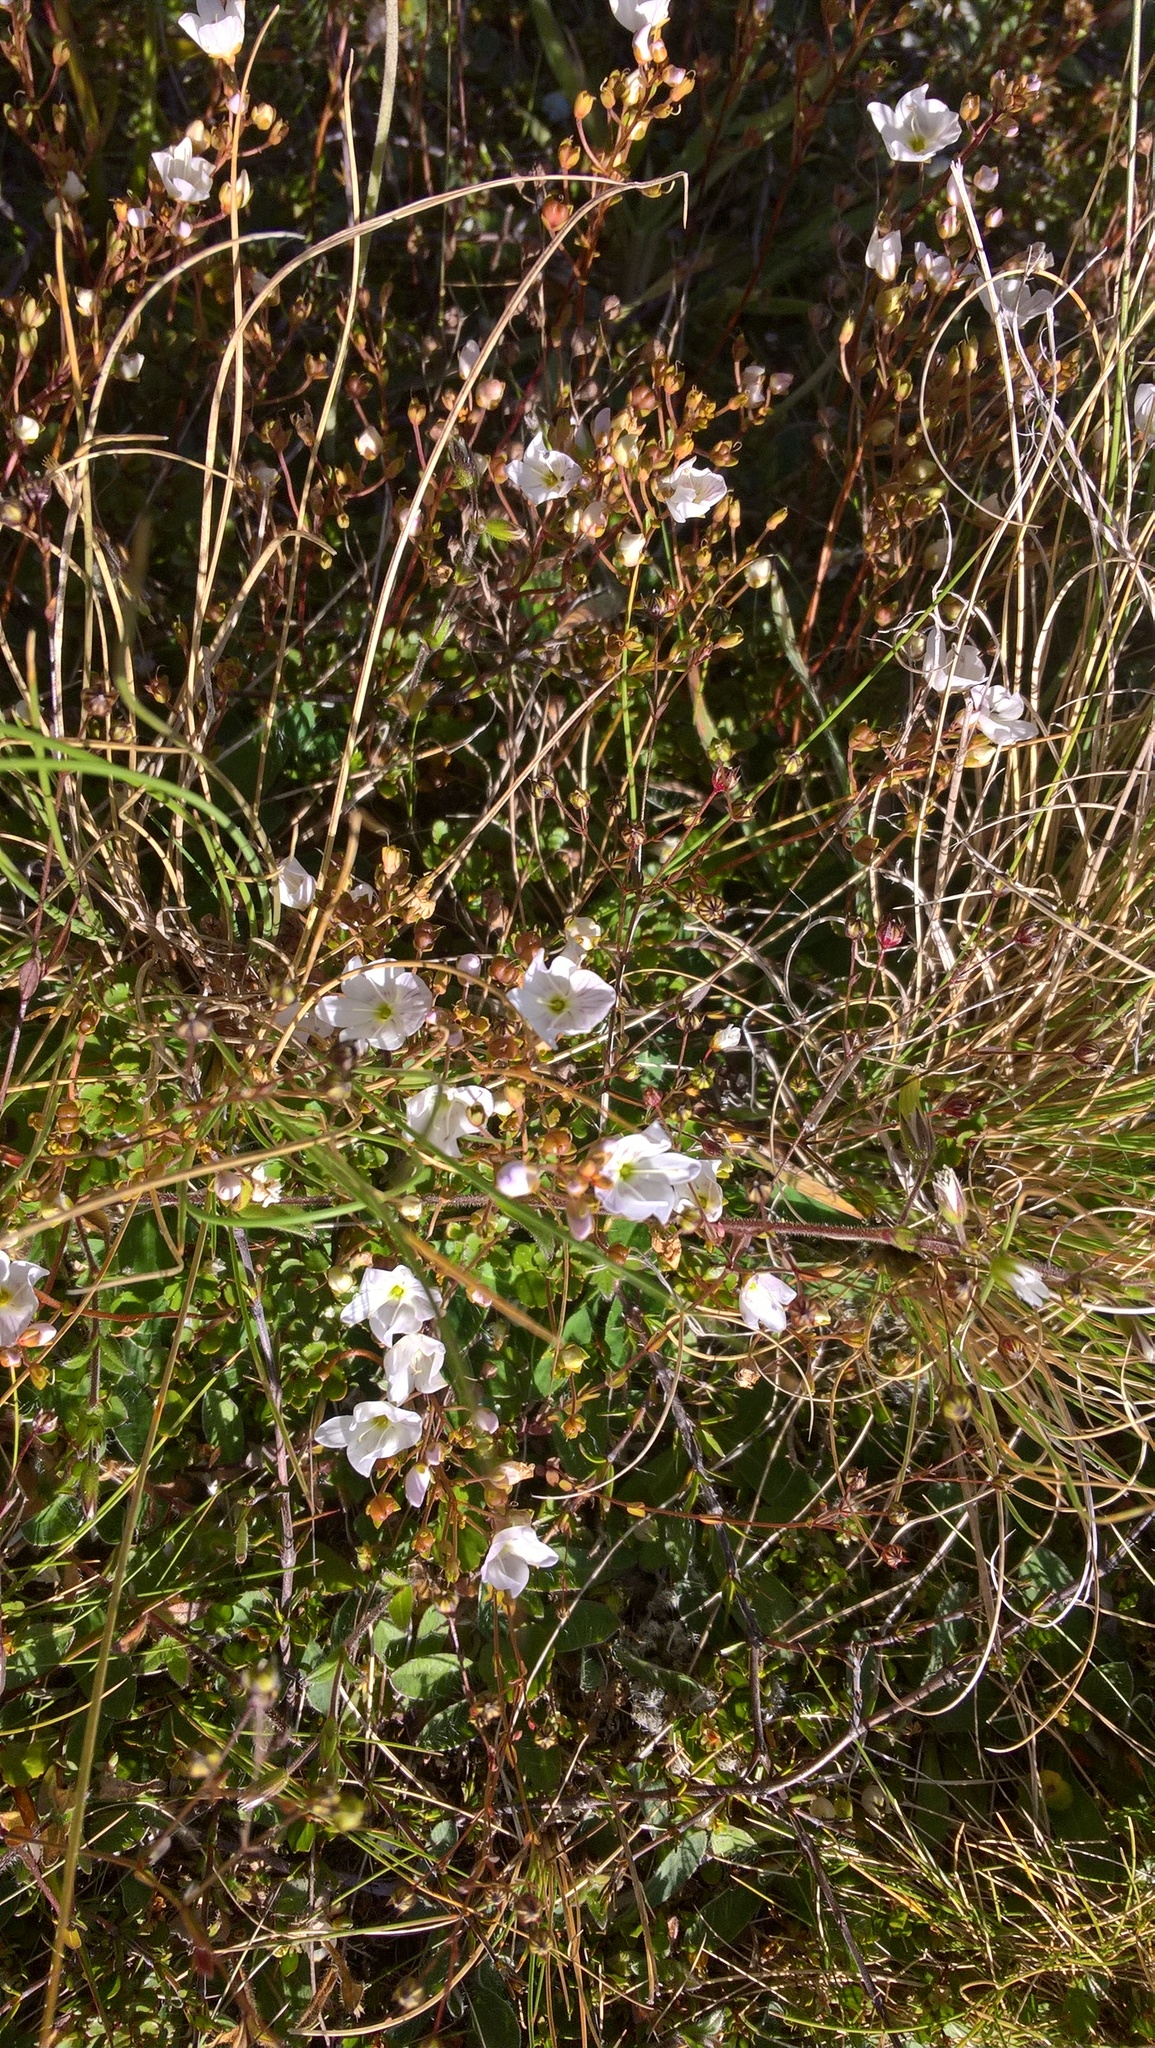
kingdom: Plantae
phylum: Tracheophyta
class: Magnoliopsida
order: Lamiales
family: Plantaginaceae
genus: Veronica
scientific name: Veronica lyallii
